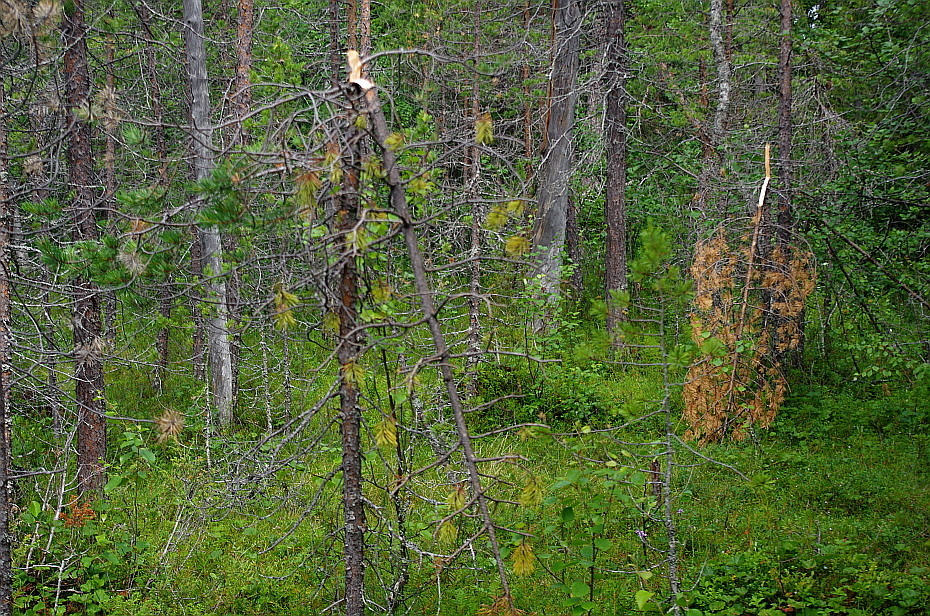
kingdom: Animalia
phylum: Chordata
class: Mammalia
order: Carnivora
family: Ursidae
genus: Ursus
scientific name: Ursus arctos
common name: Brown bear
